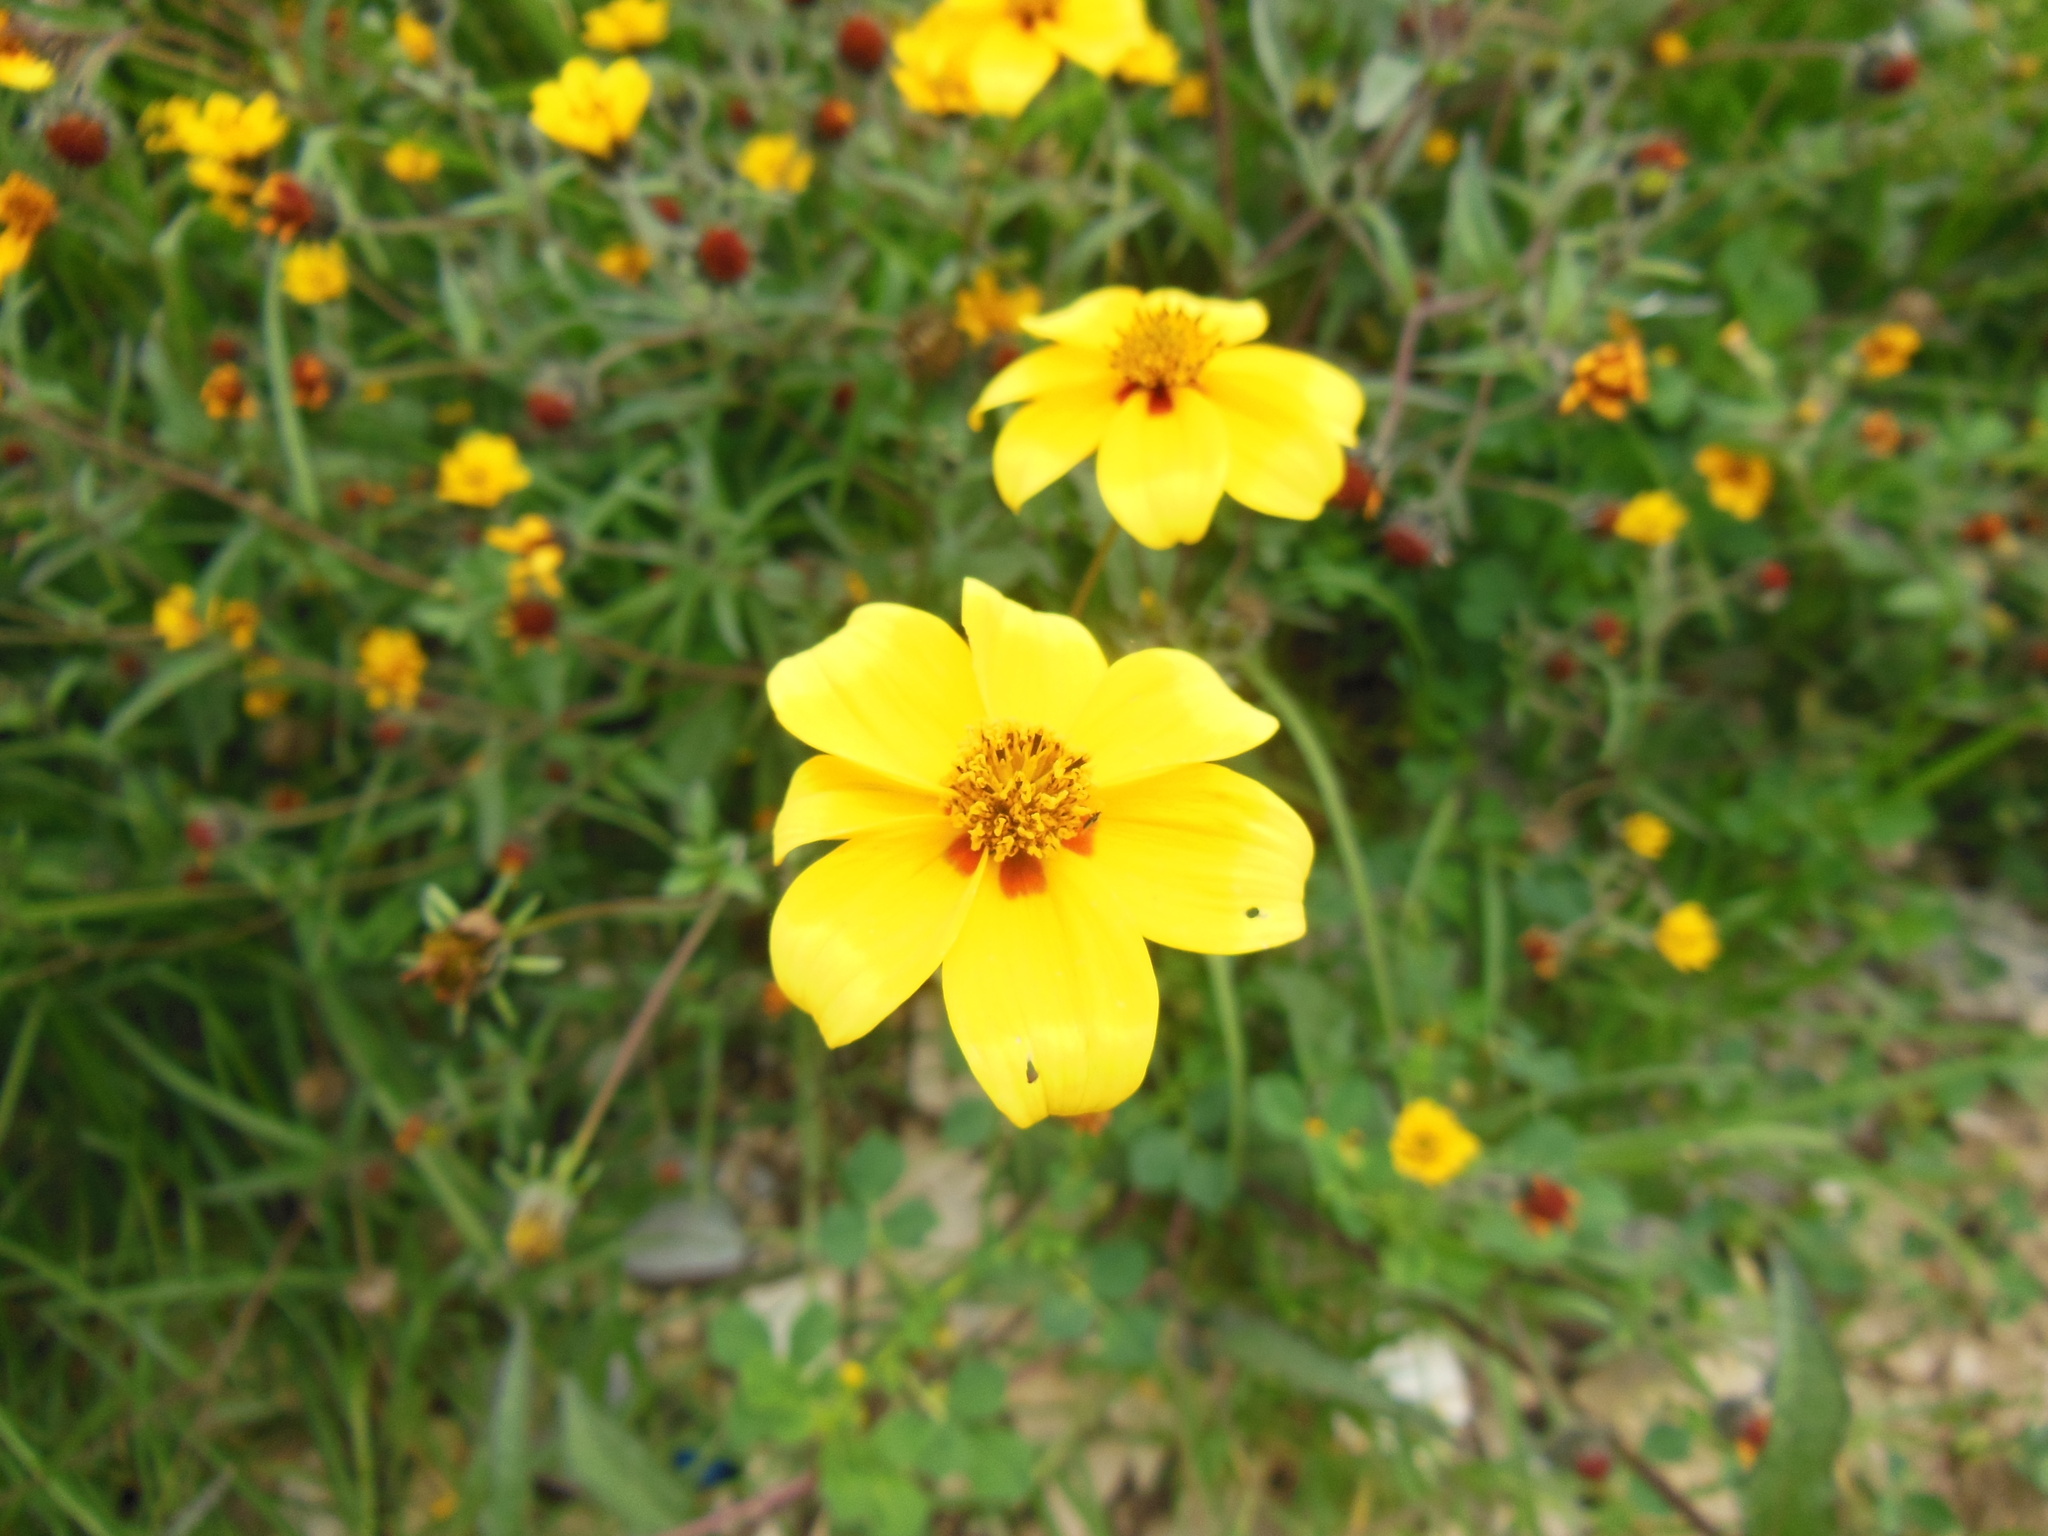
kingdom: Plantae
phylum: Tracheophyta
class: Magnoliopsida
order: Asterales
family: Asteraceae
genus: Bidens
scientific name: Bidens bicolor
